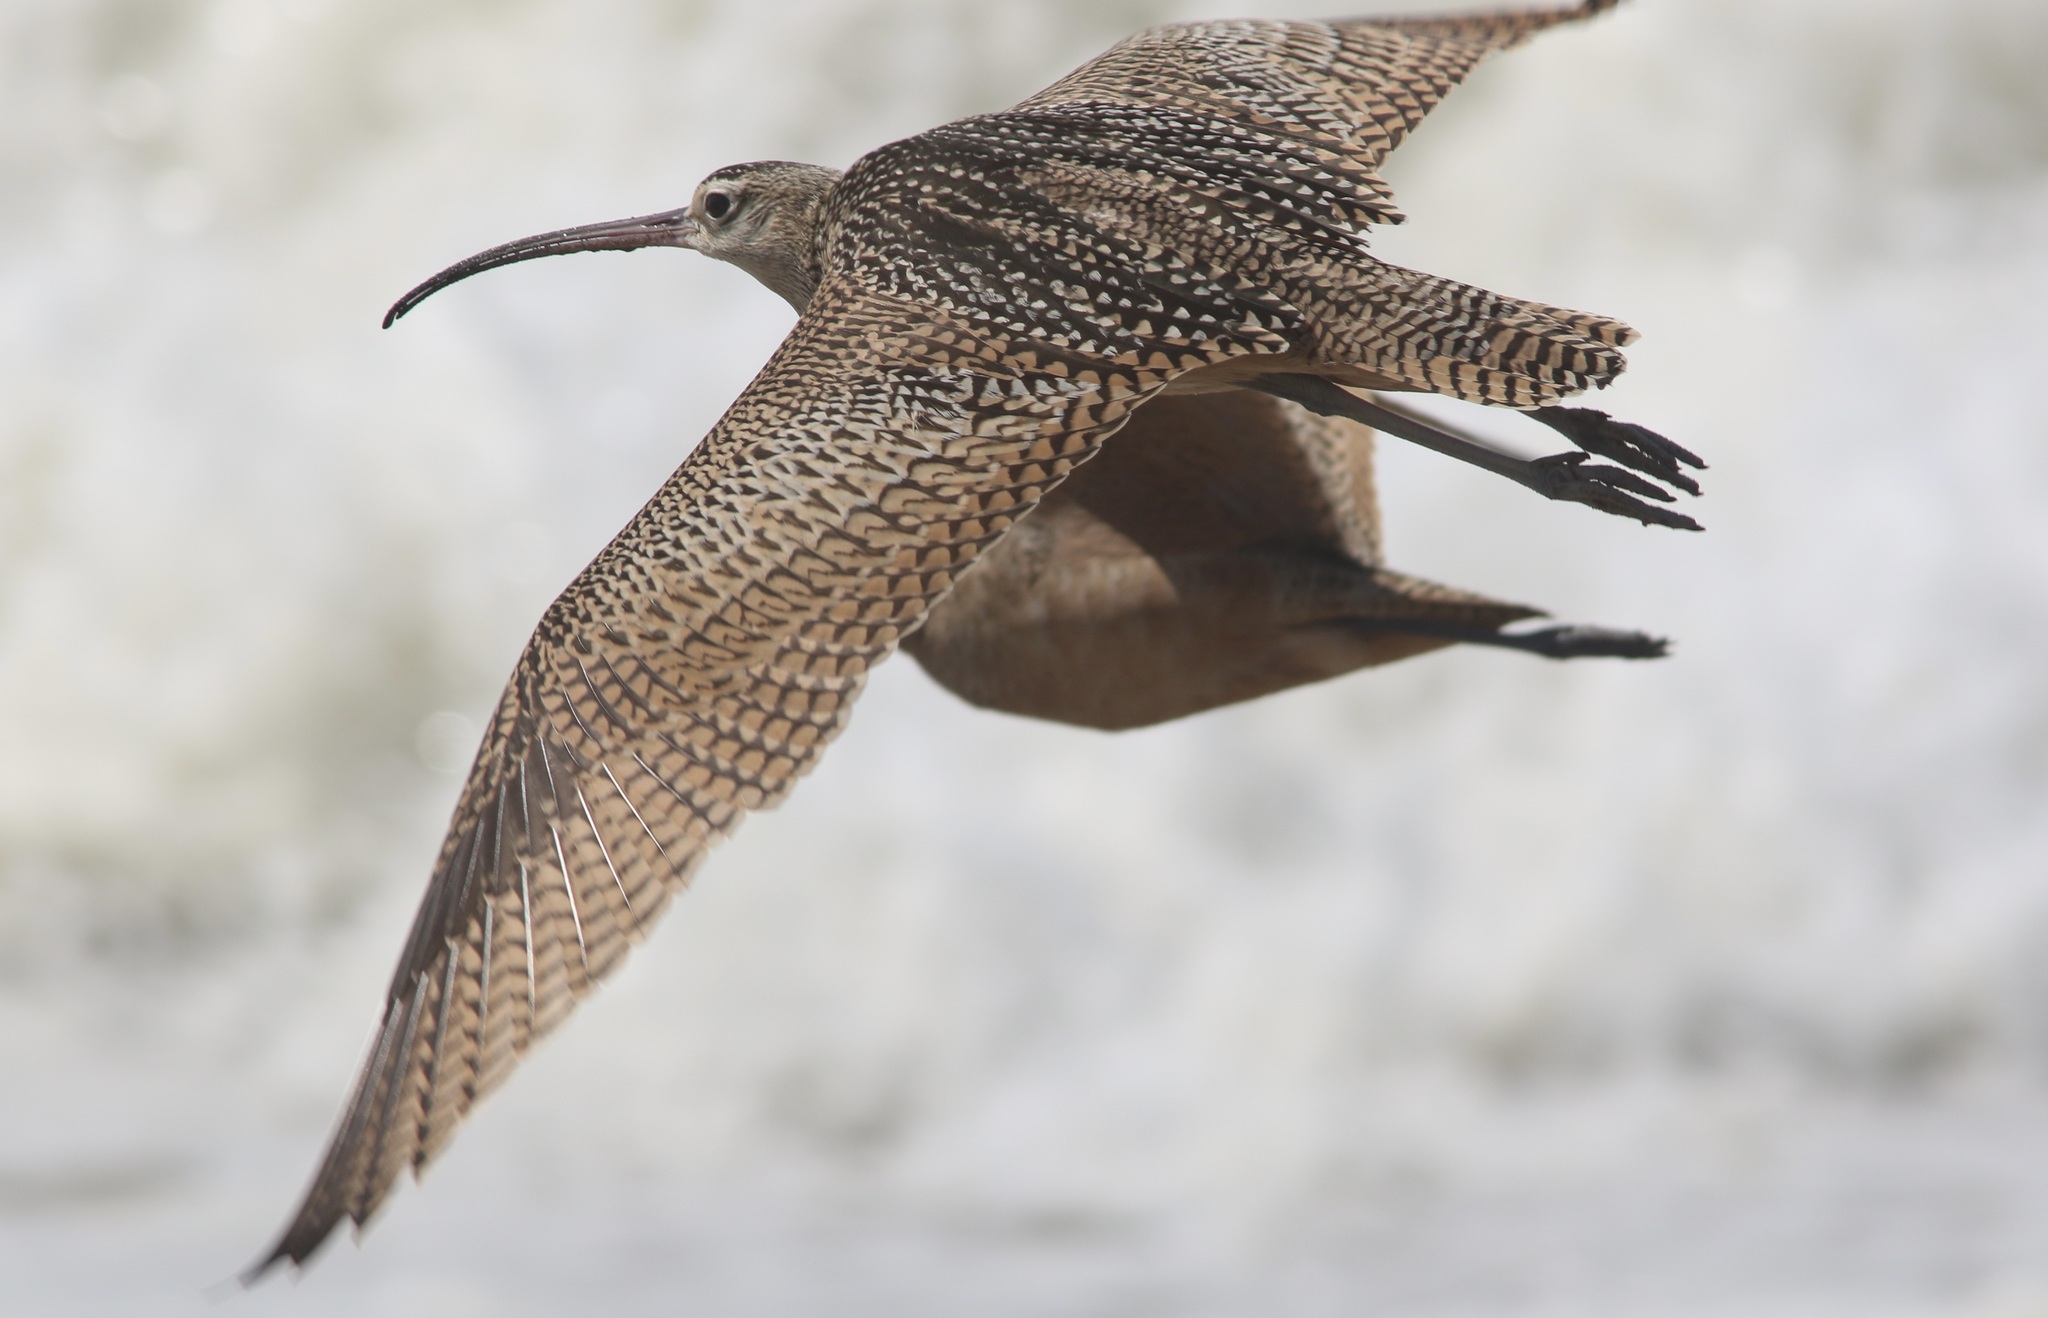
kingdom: Animalia
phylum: Chordata
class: Aves
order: Charadriiformes
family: Scolopacidae
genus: Numenius
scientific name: Numenius americanus
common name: Long-billed curlew
